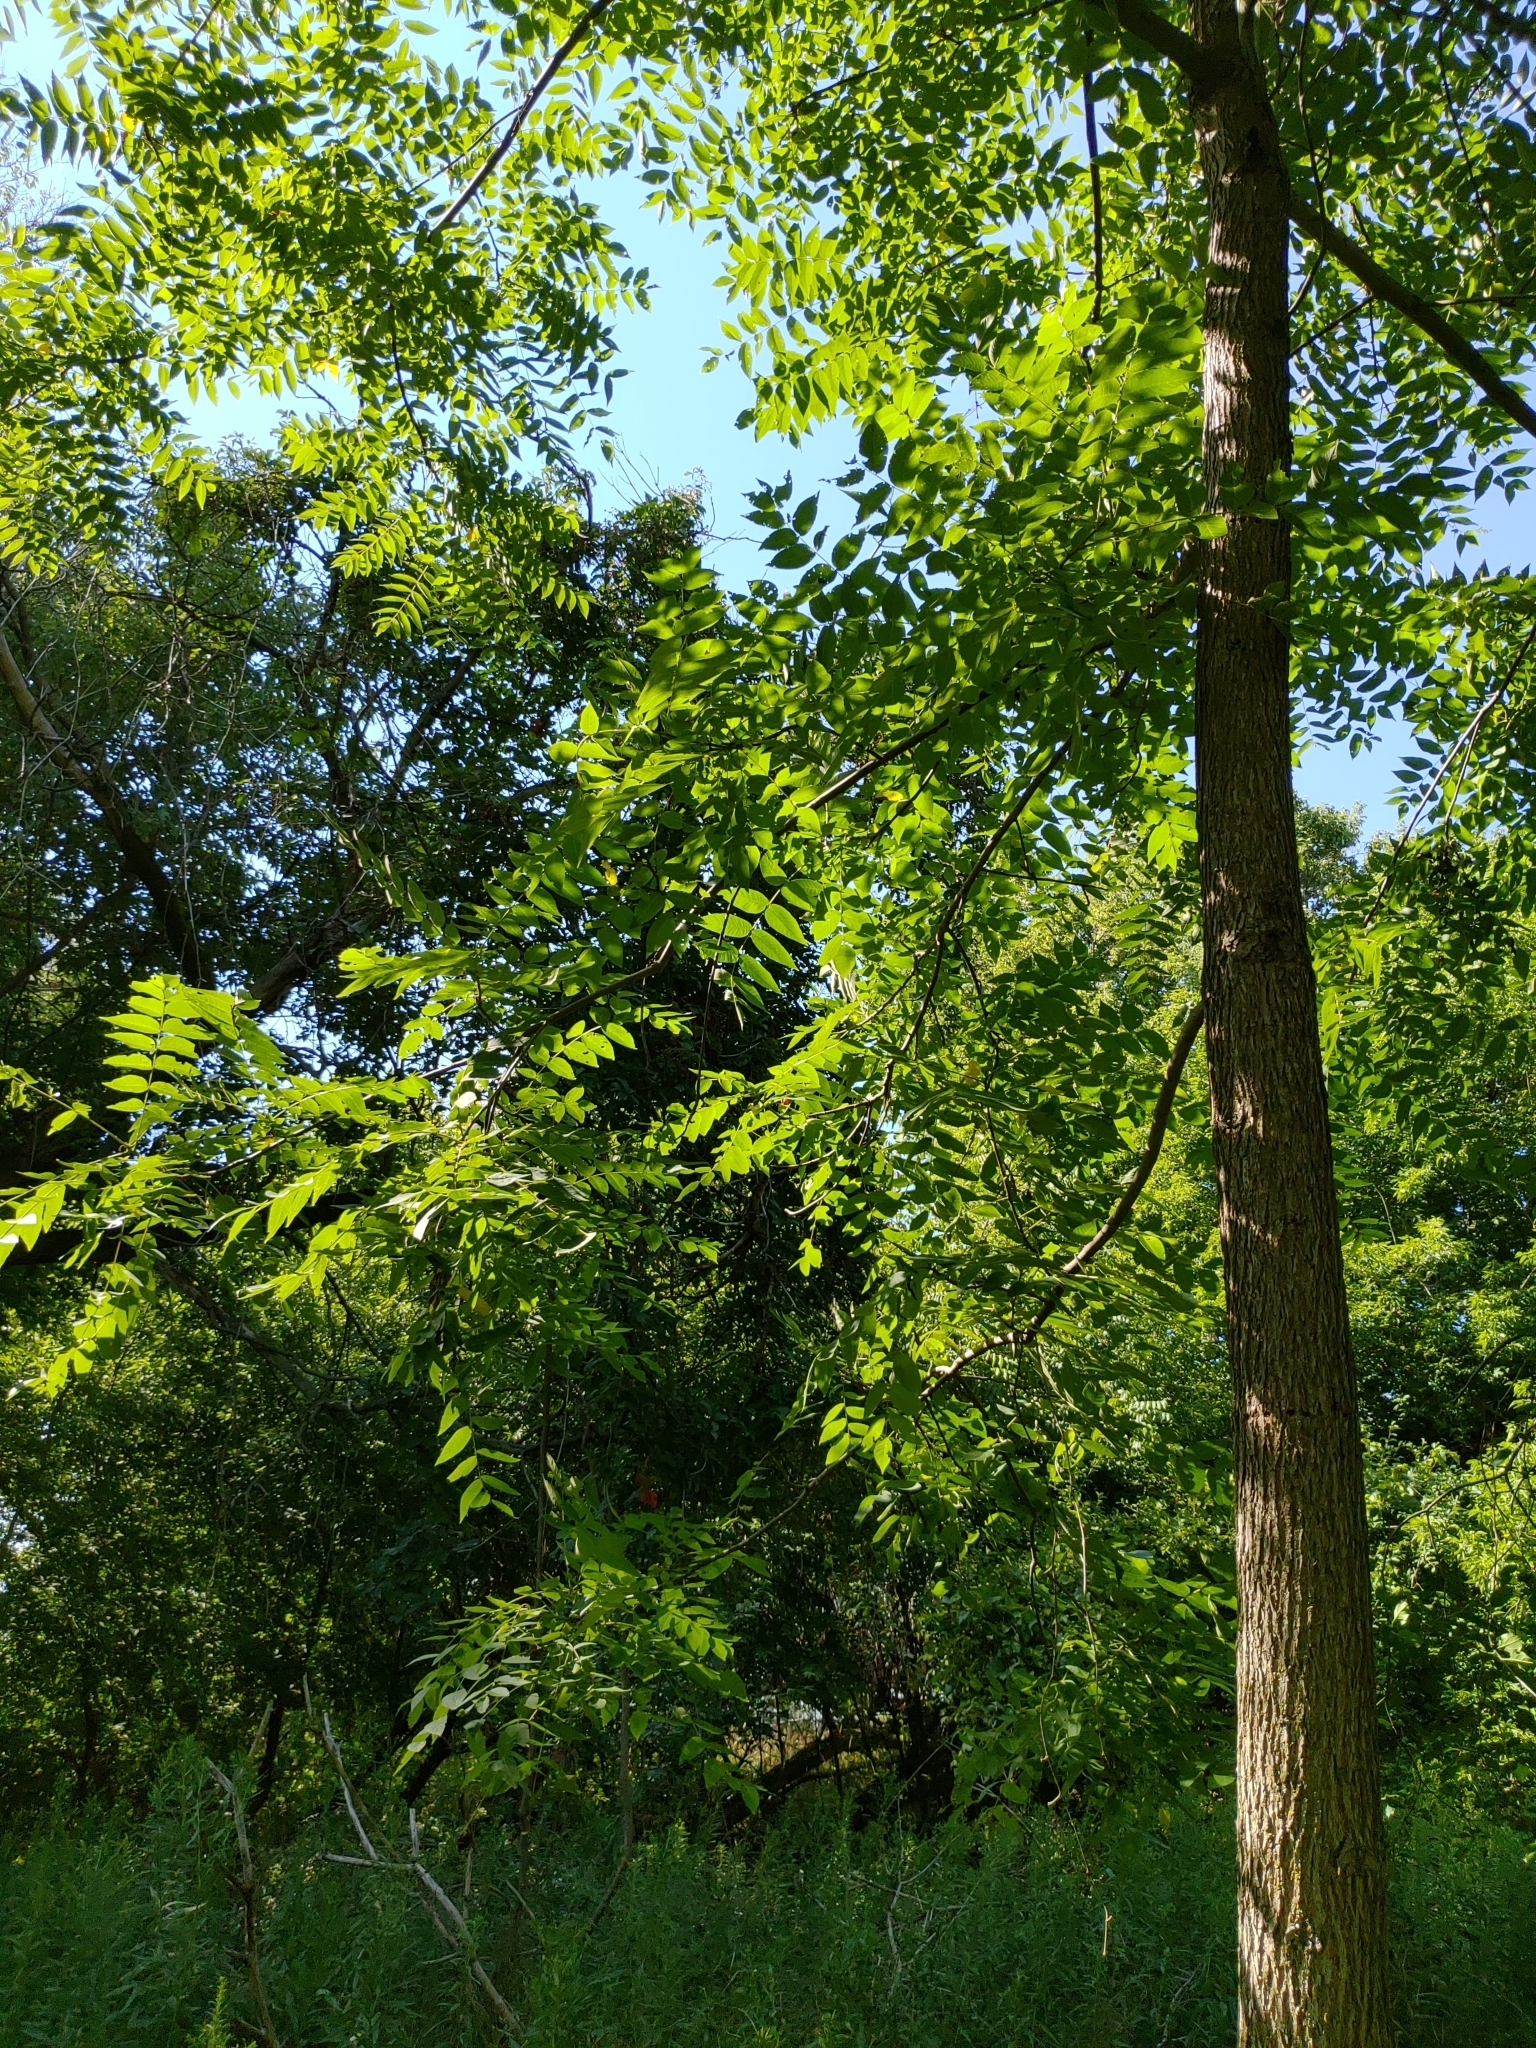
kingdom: Plantae
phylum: Tracheophyta
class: Magnoliopsida
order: Fagales
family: Juglandaceae
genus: Juglans
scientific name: Juglans nigra
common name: Black walnut
